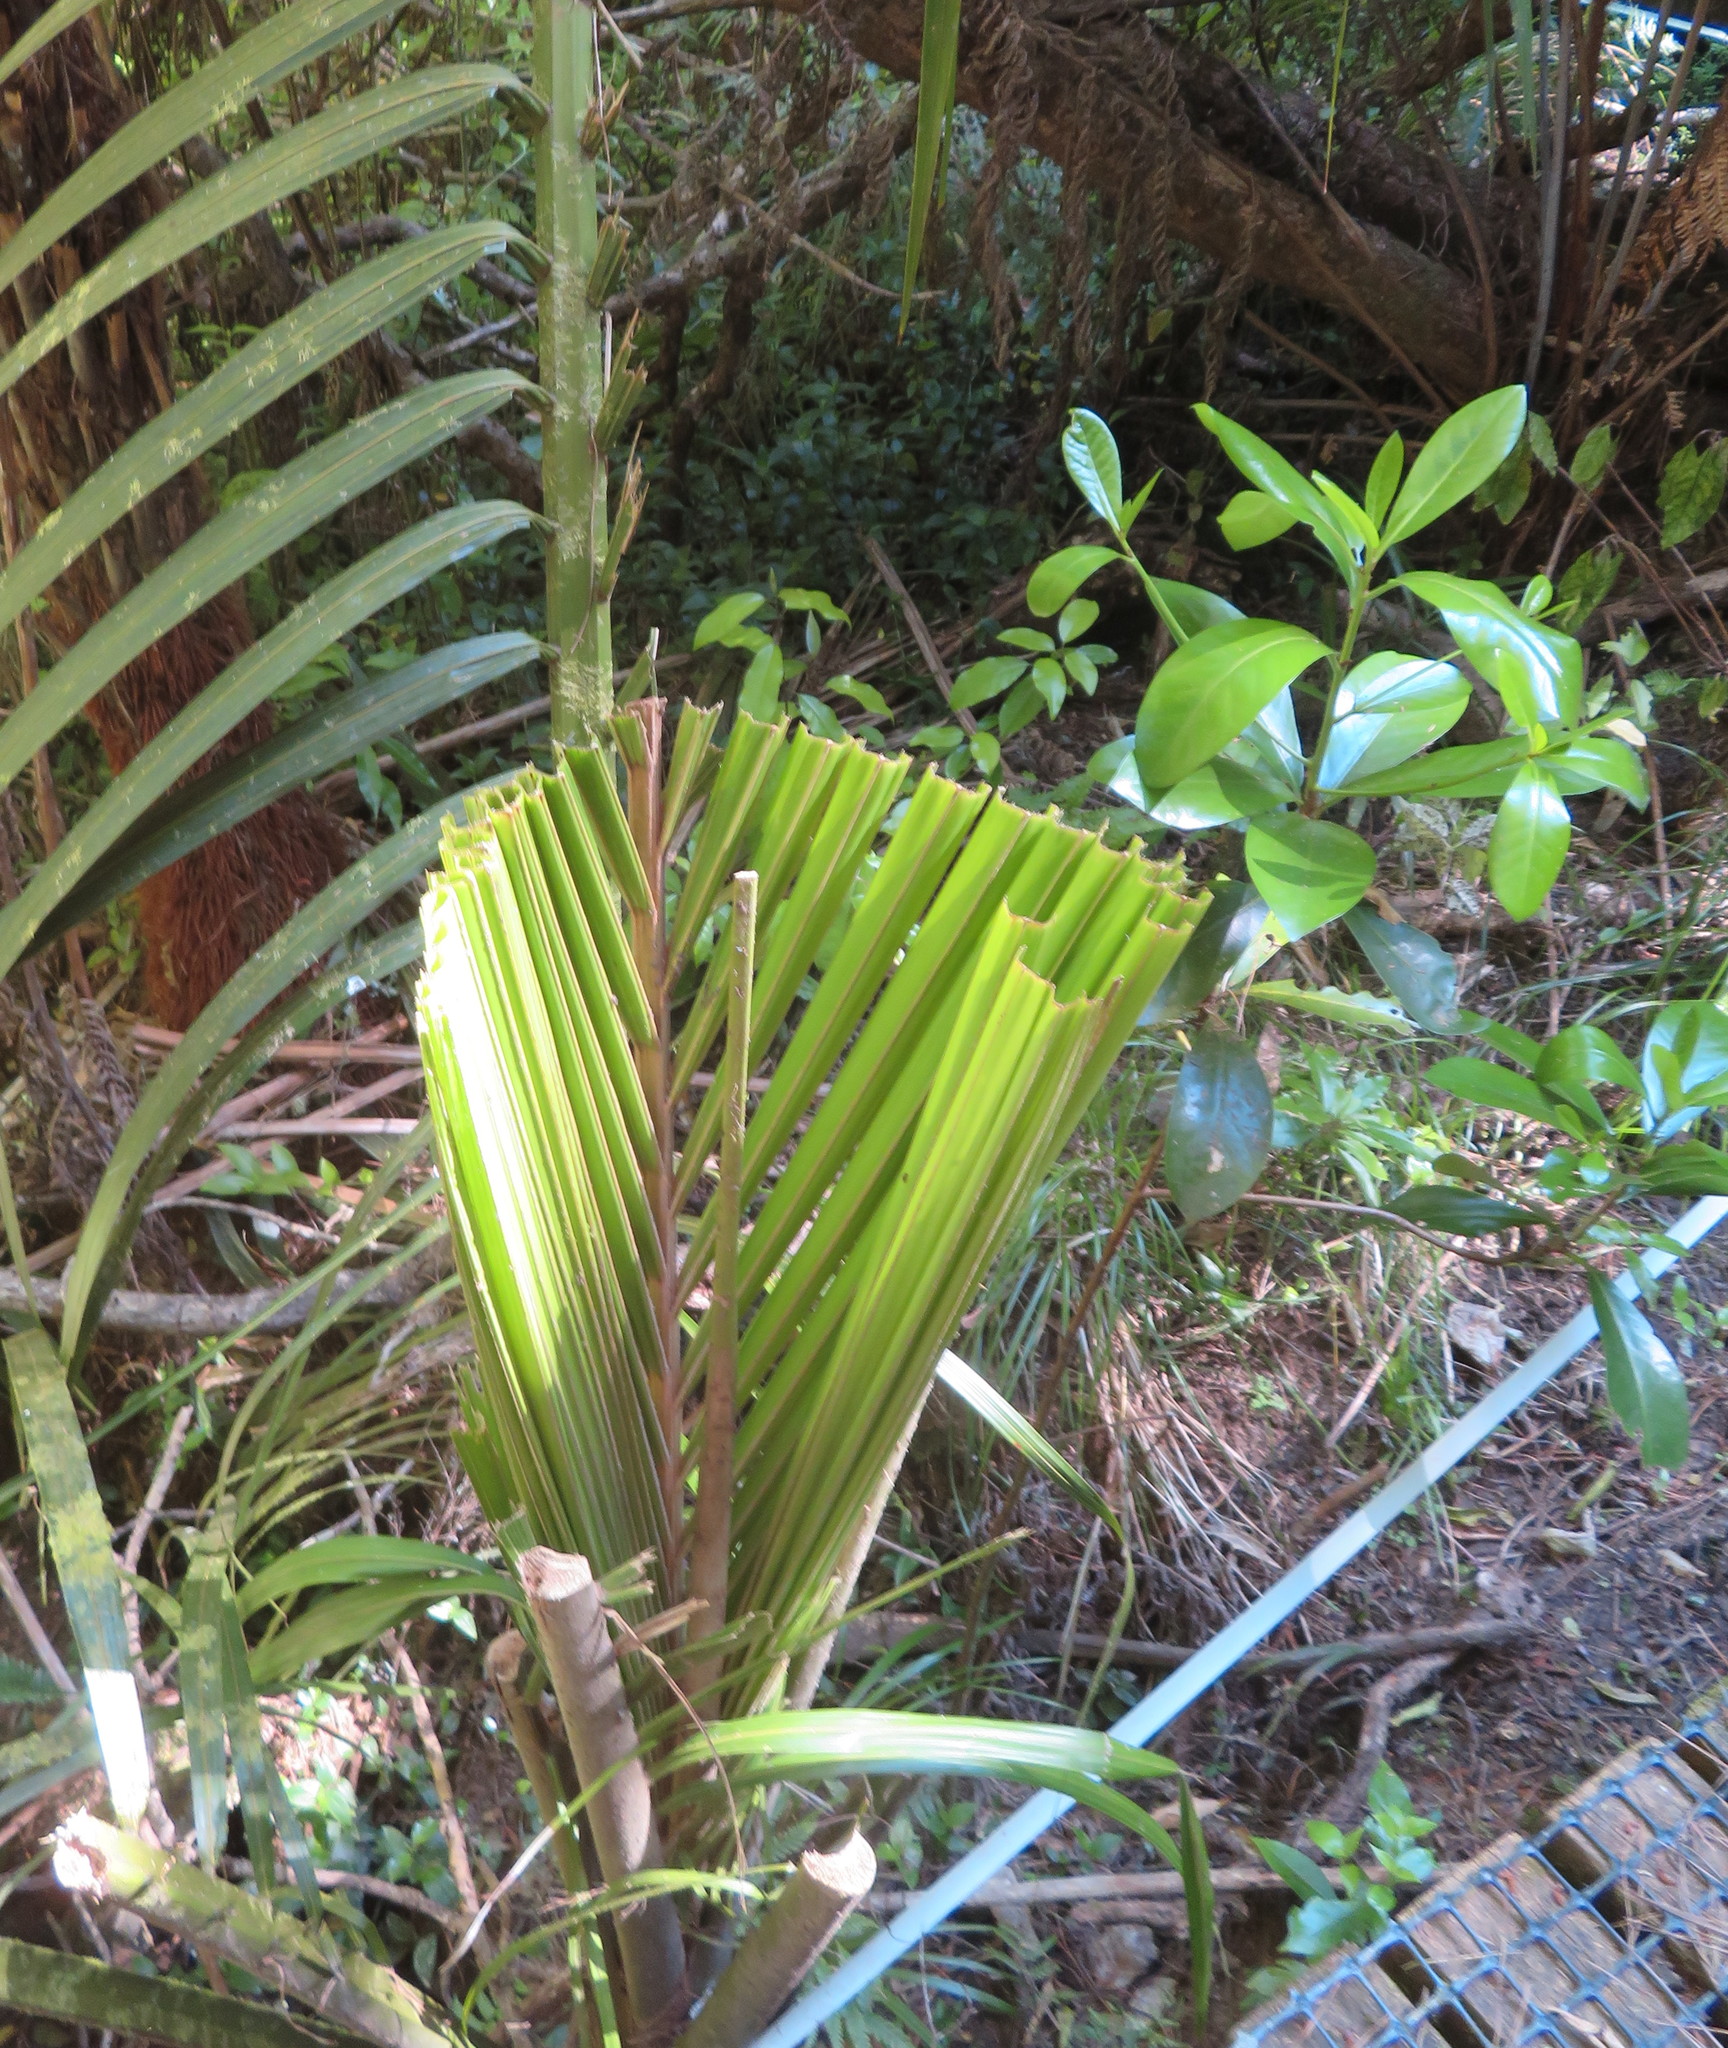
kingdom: Plantae
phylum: Tracheophyta
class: Magnoliopsida
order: Cucurbitales
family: Corynocarpaceae
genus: Corynocarpus
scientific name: Corynocarpus laevigatus
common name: New zealand laurel
